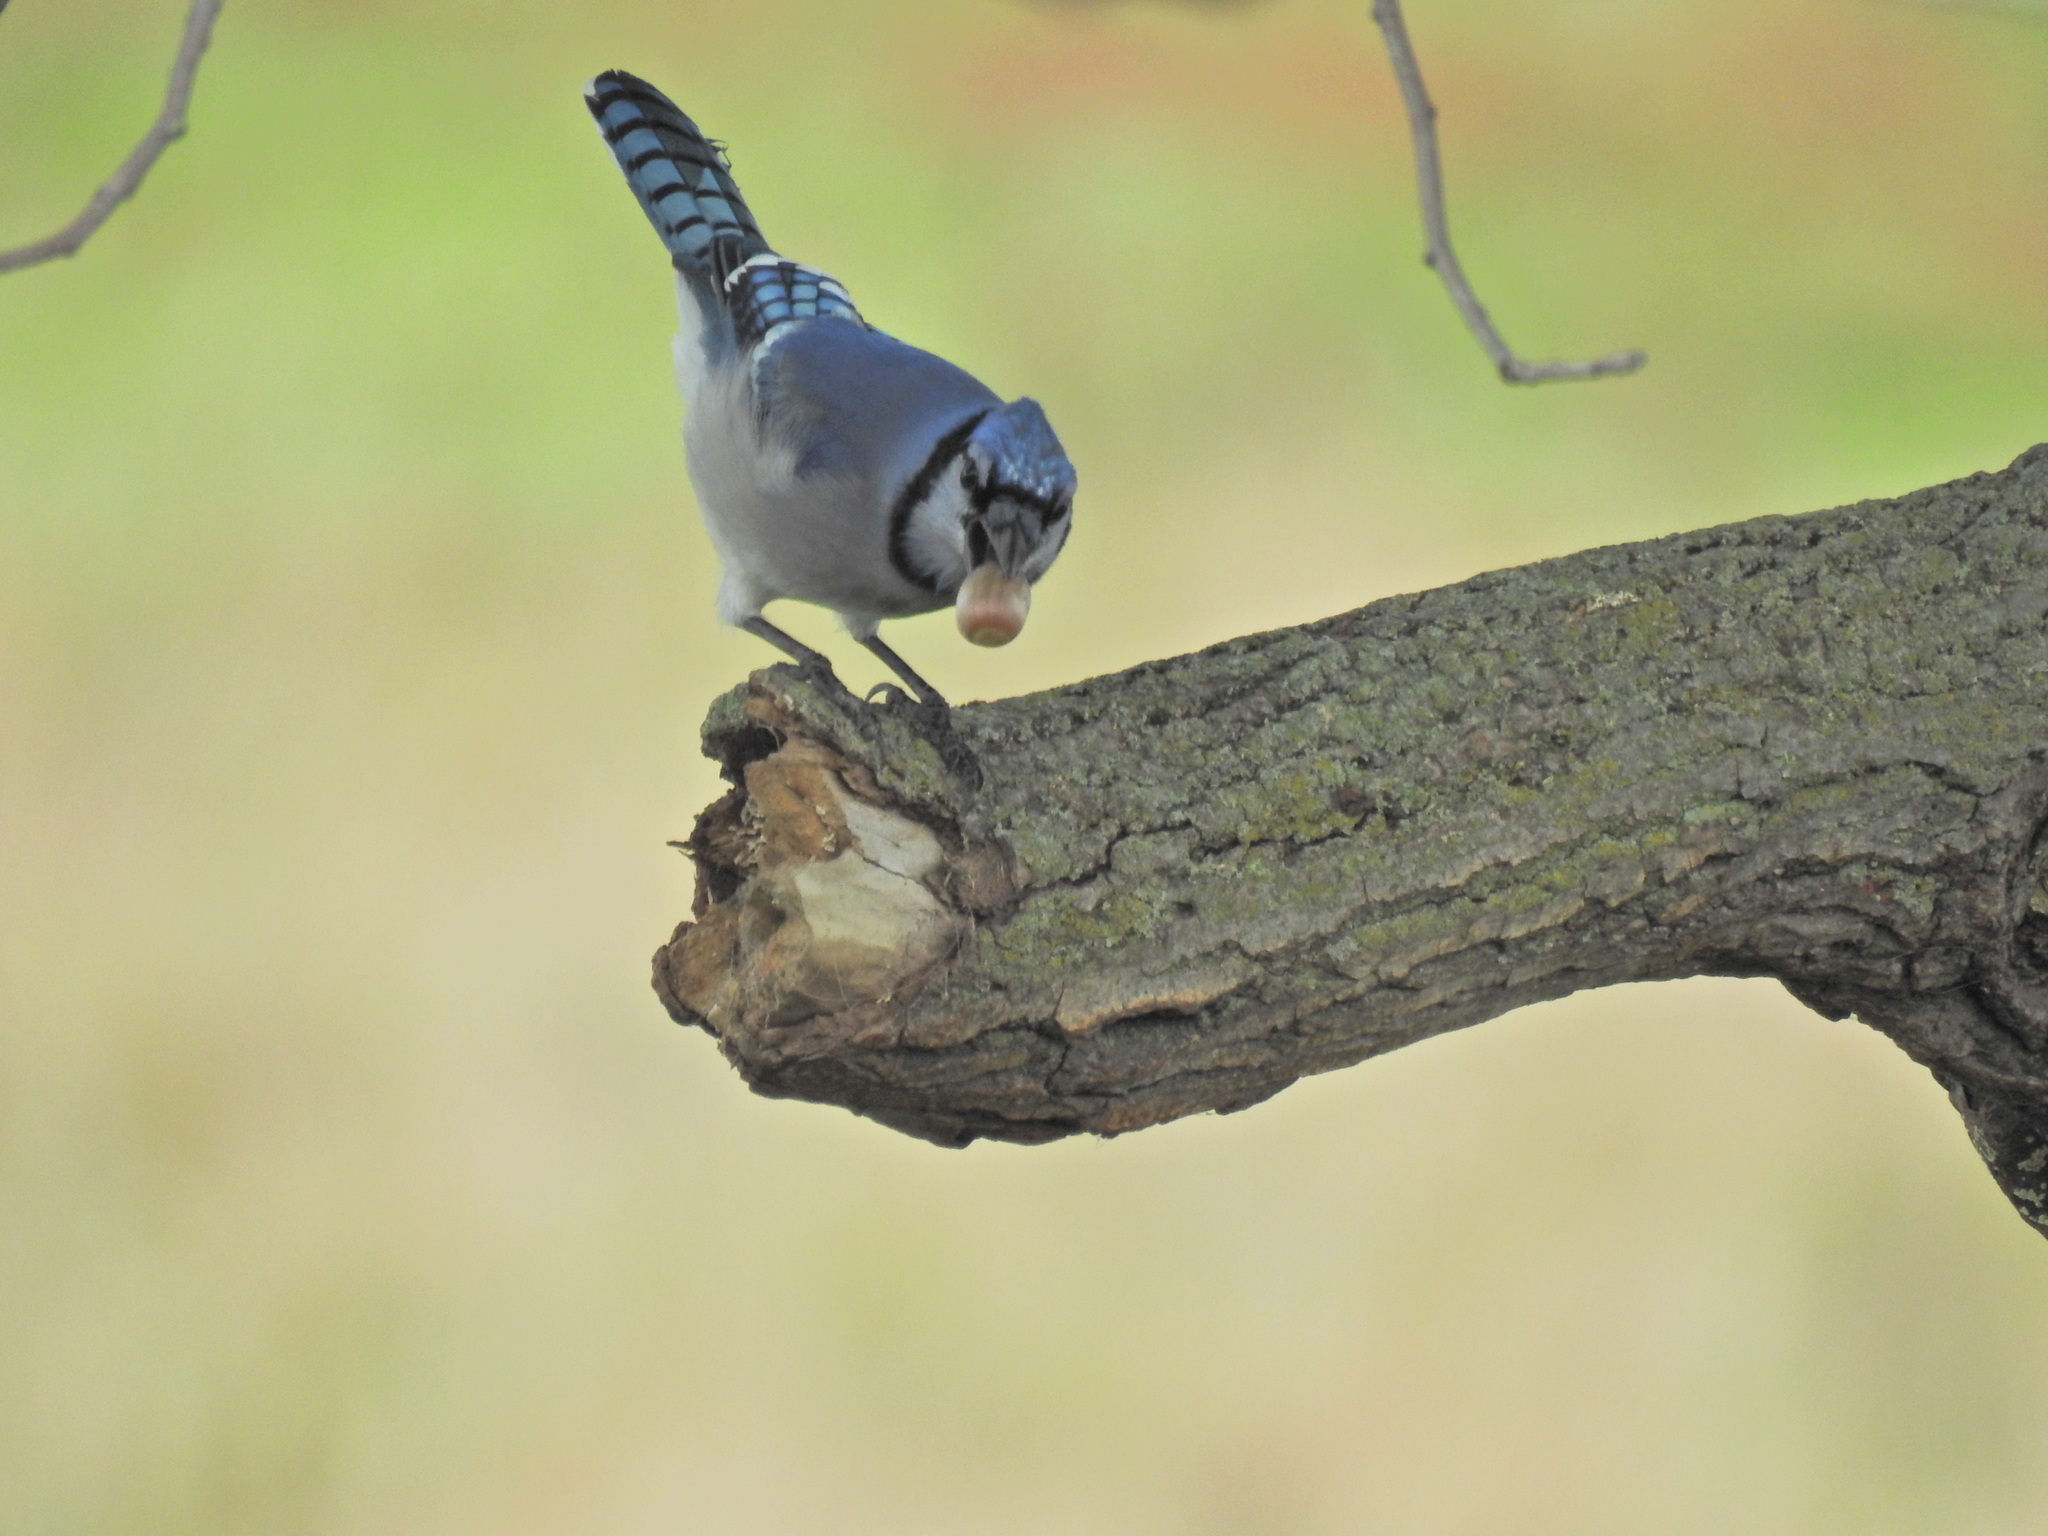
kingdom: Animalia
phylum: Chordata
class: Aves
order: Passeriformes
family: Corvidae
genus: Cyanocitta
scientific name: Cyanocitta cristata
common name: Blue jay
